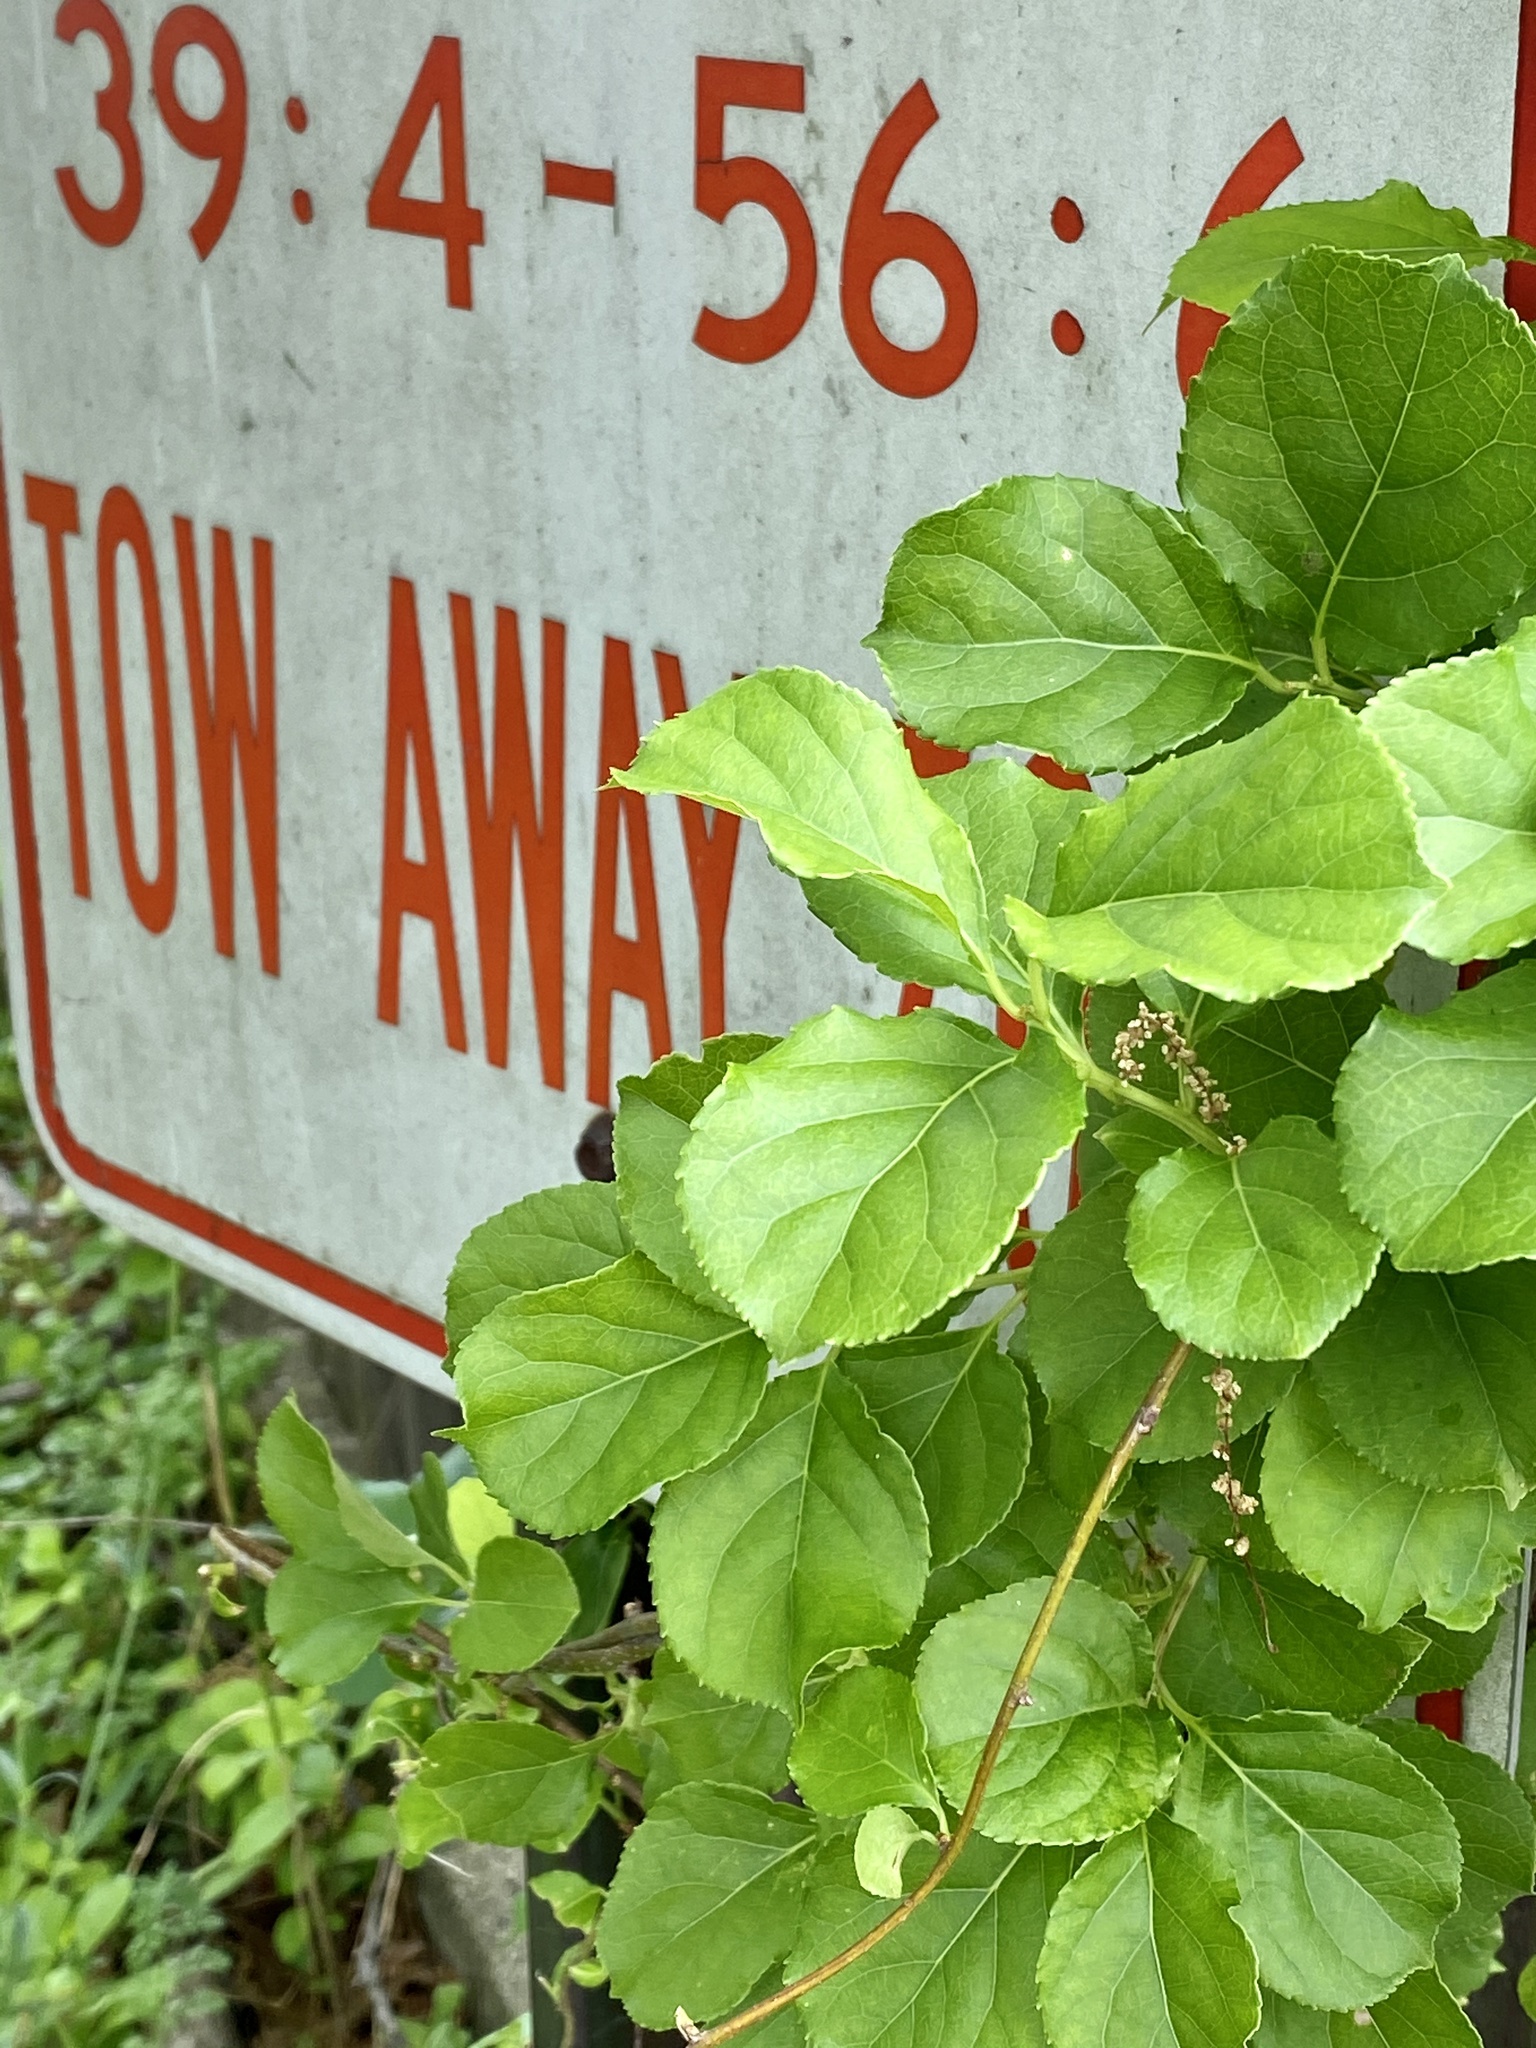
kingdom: Plantae
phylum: Tracheophyta
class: Magnoliopsida
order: Celastrales
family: Celastraceae
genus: Celastrus
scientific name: Celastrus orbiculatus
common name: Oriental bittersweet
